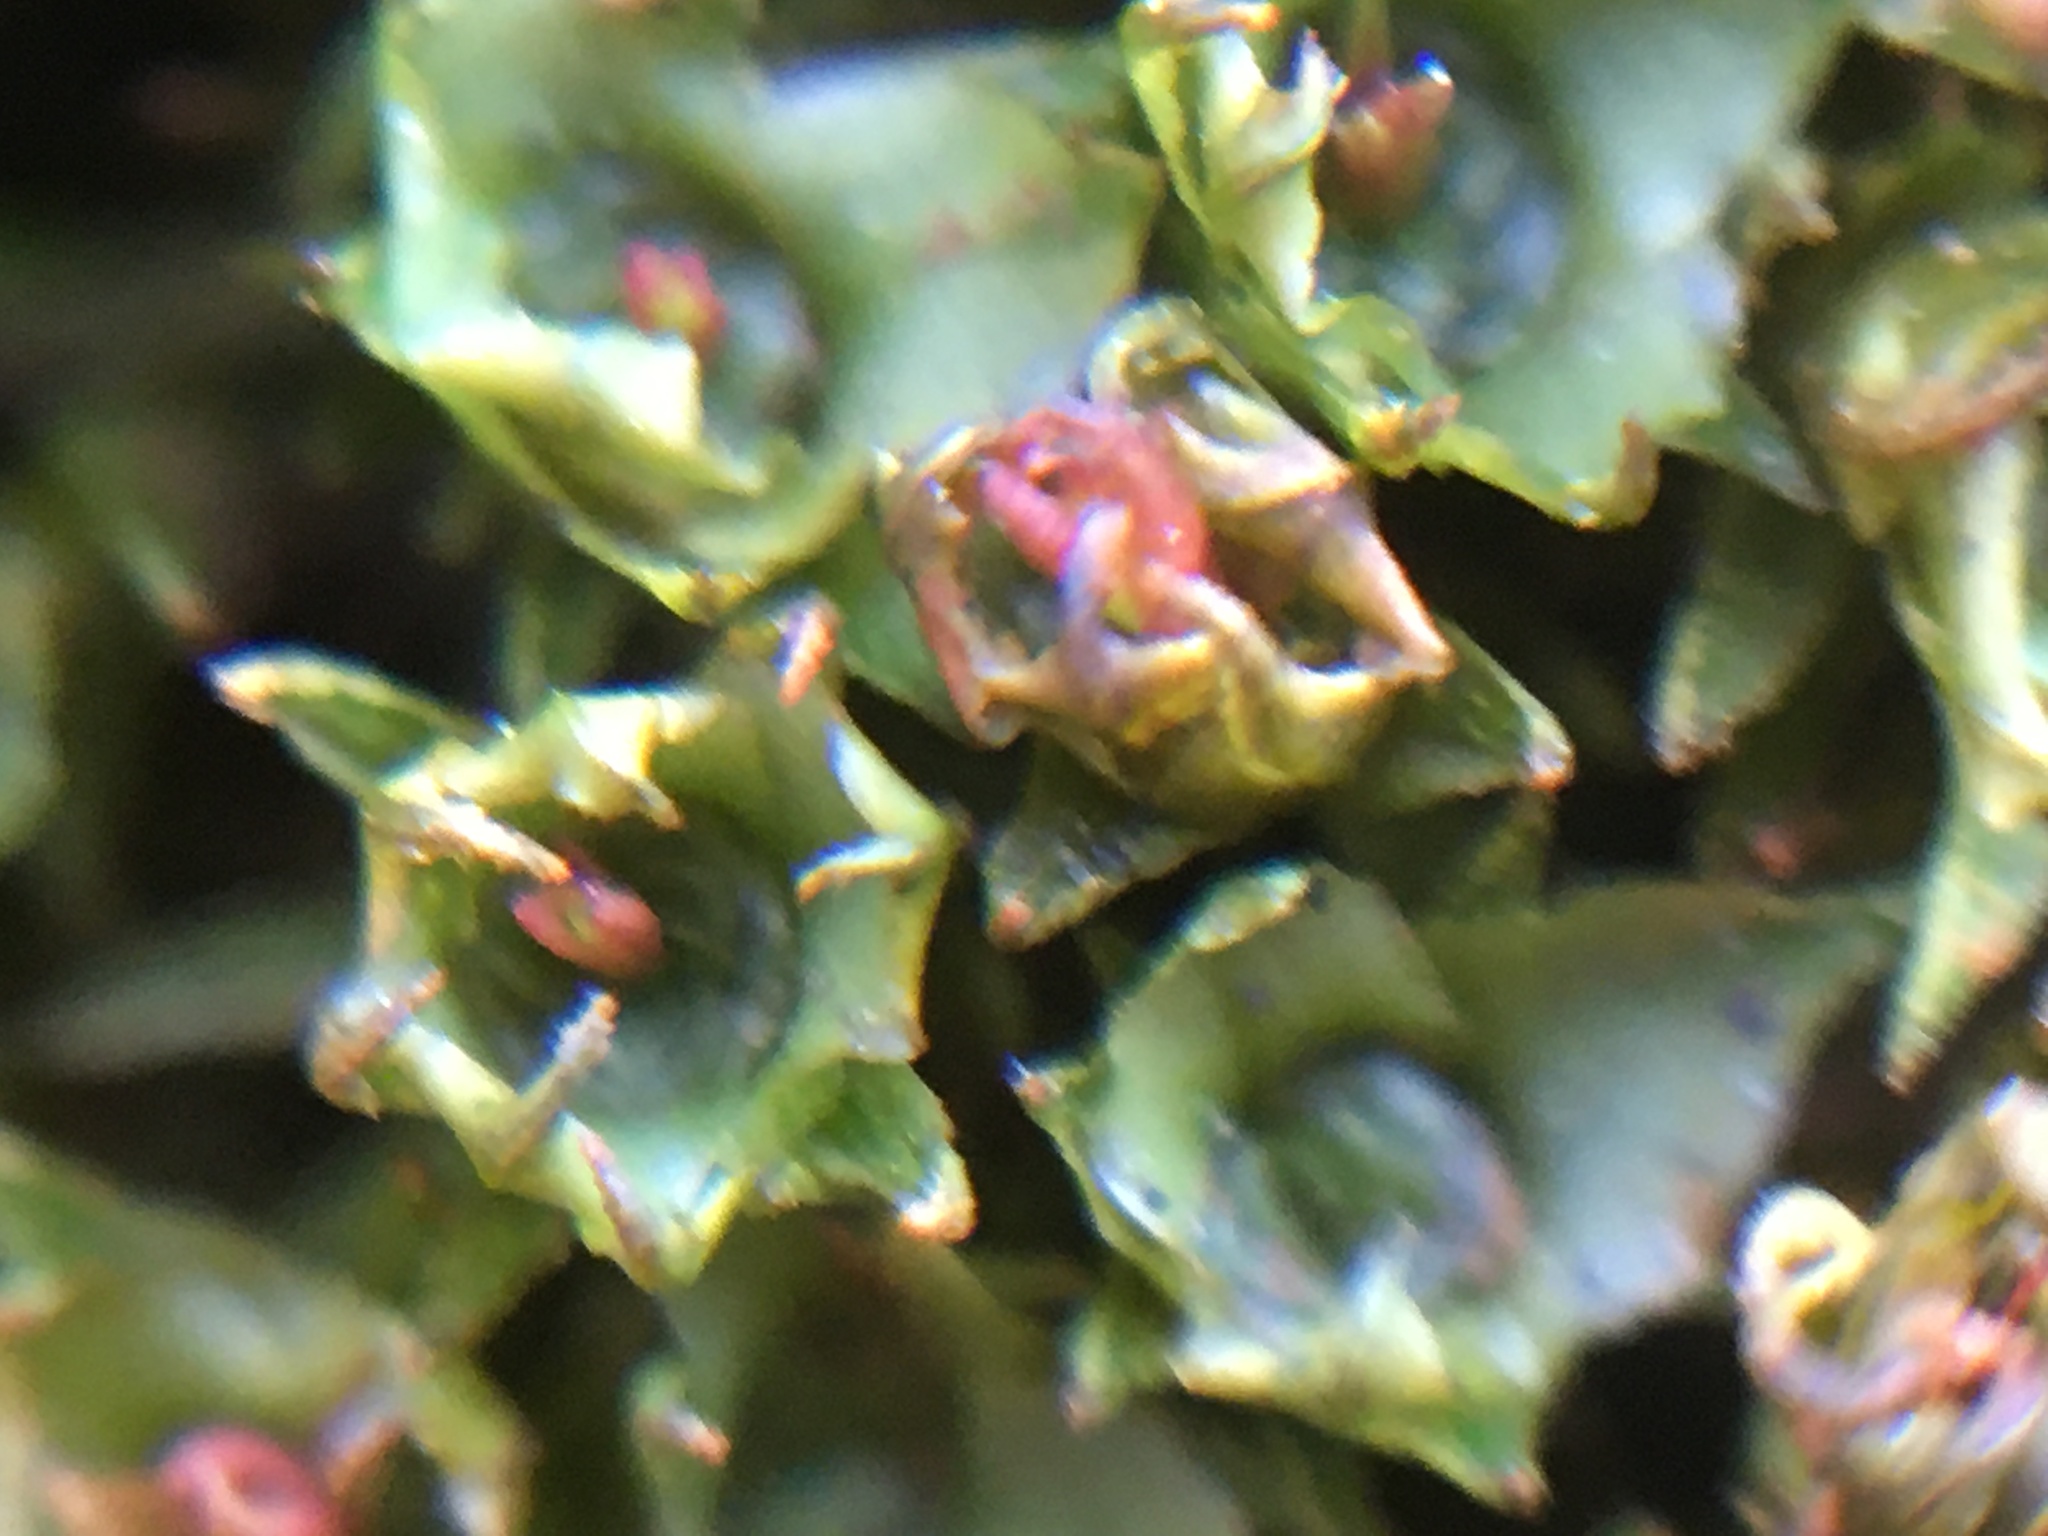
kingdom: Plantae
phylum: Bryophyta
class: Polytrichopsida
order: Polytrichales
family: Polytrichaceae
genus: Atrichum
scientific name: Atrichum angustatum
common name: Lesser smoothcap
